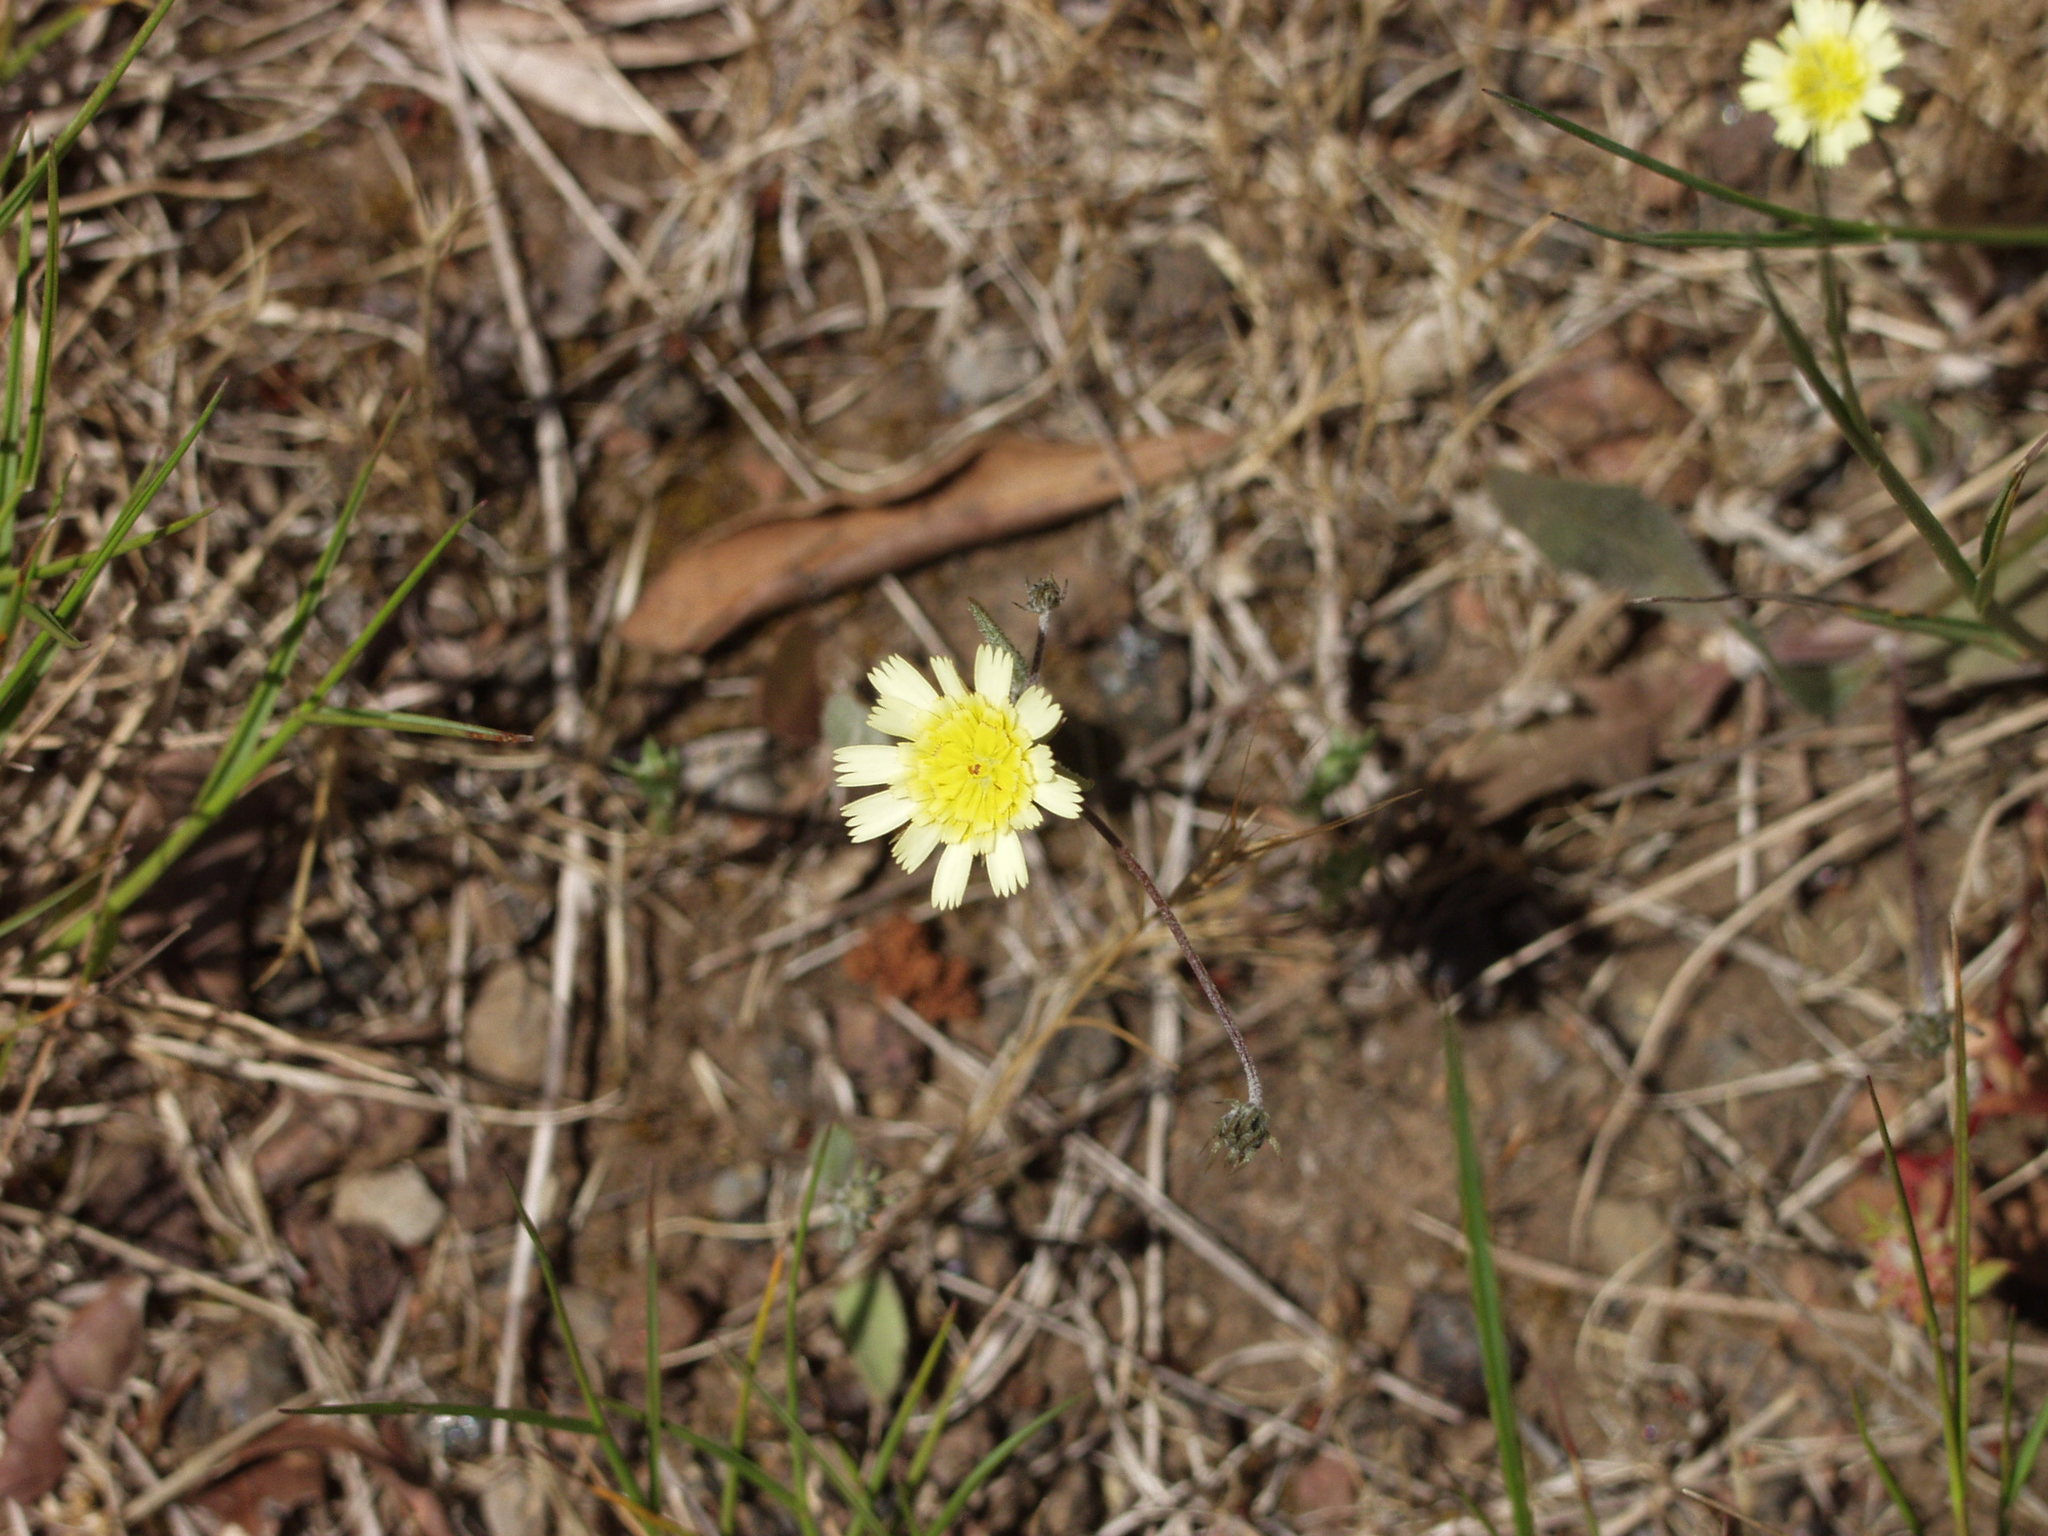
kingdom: Plantae
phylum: Tracheophyta
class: Magnoliopsida
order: Asterales
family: Asteraceae
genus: Tolpis
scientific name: Tolpis umbellata
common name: Yellow hawkweed
